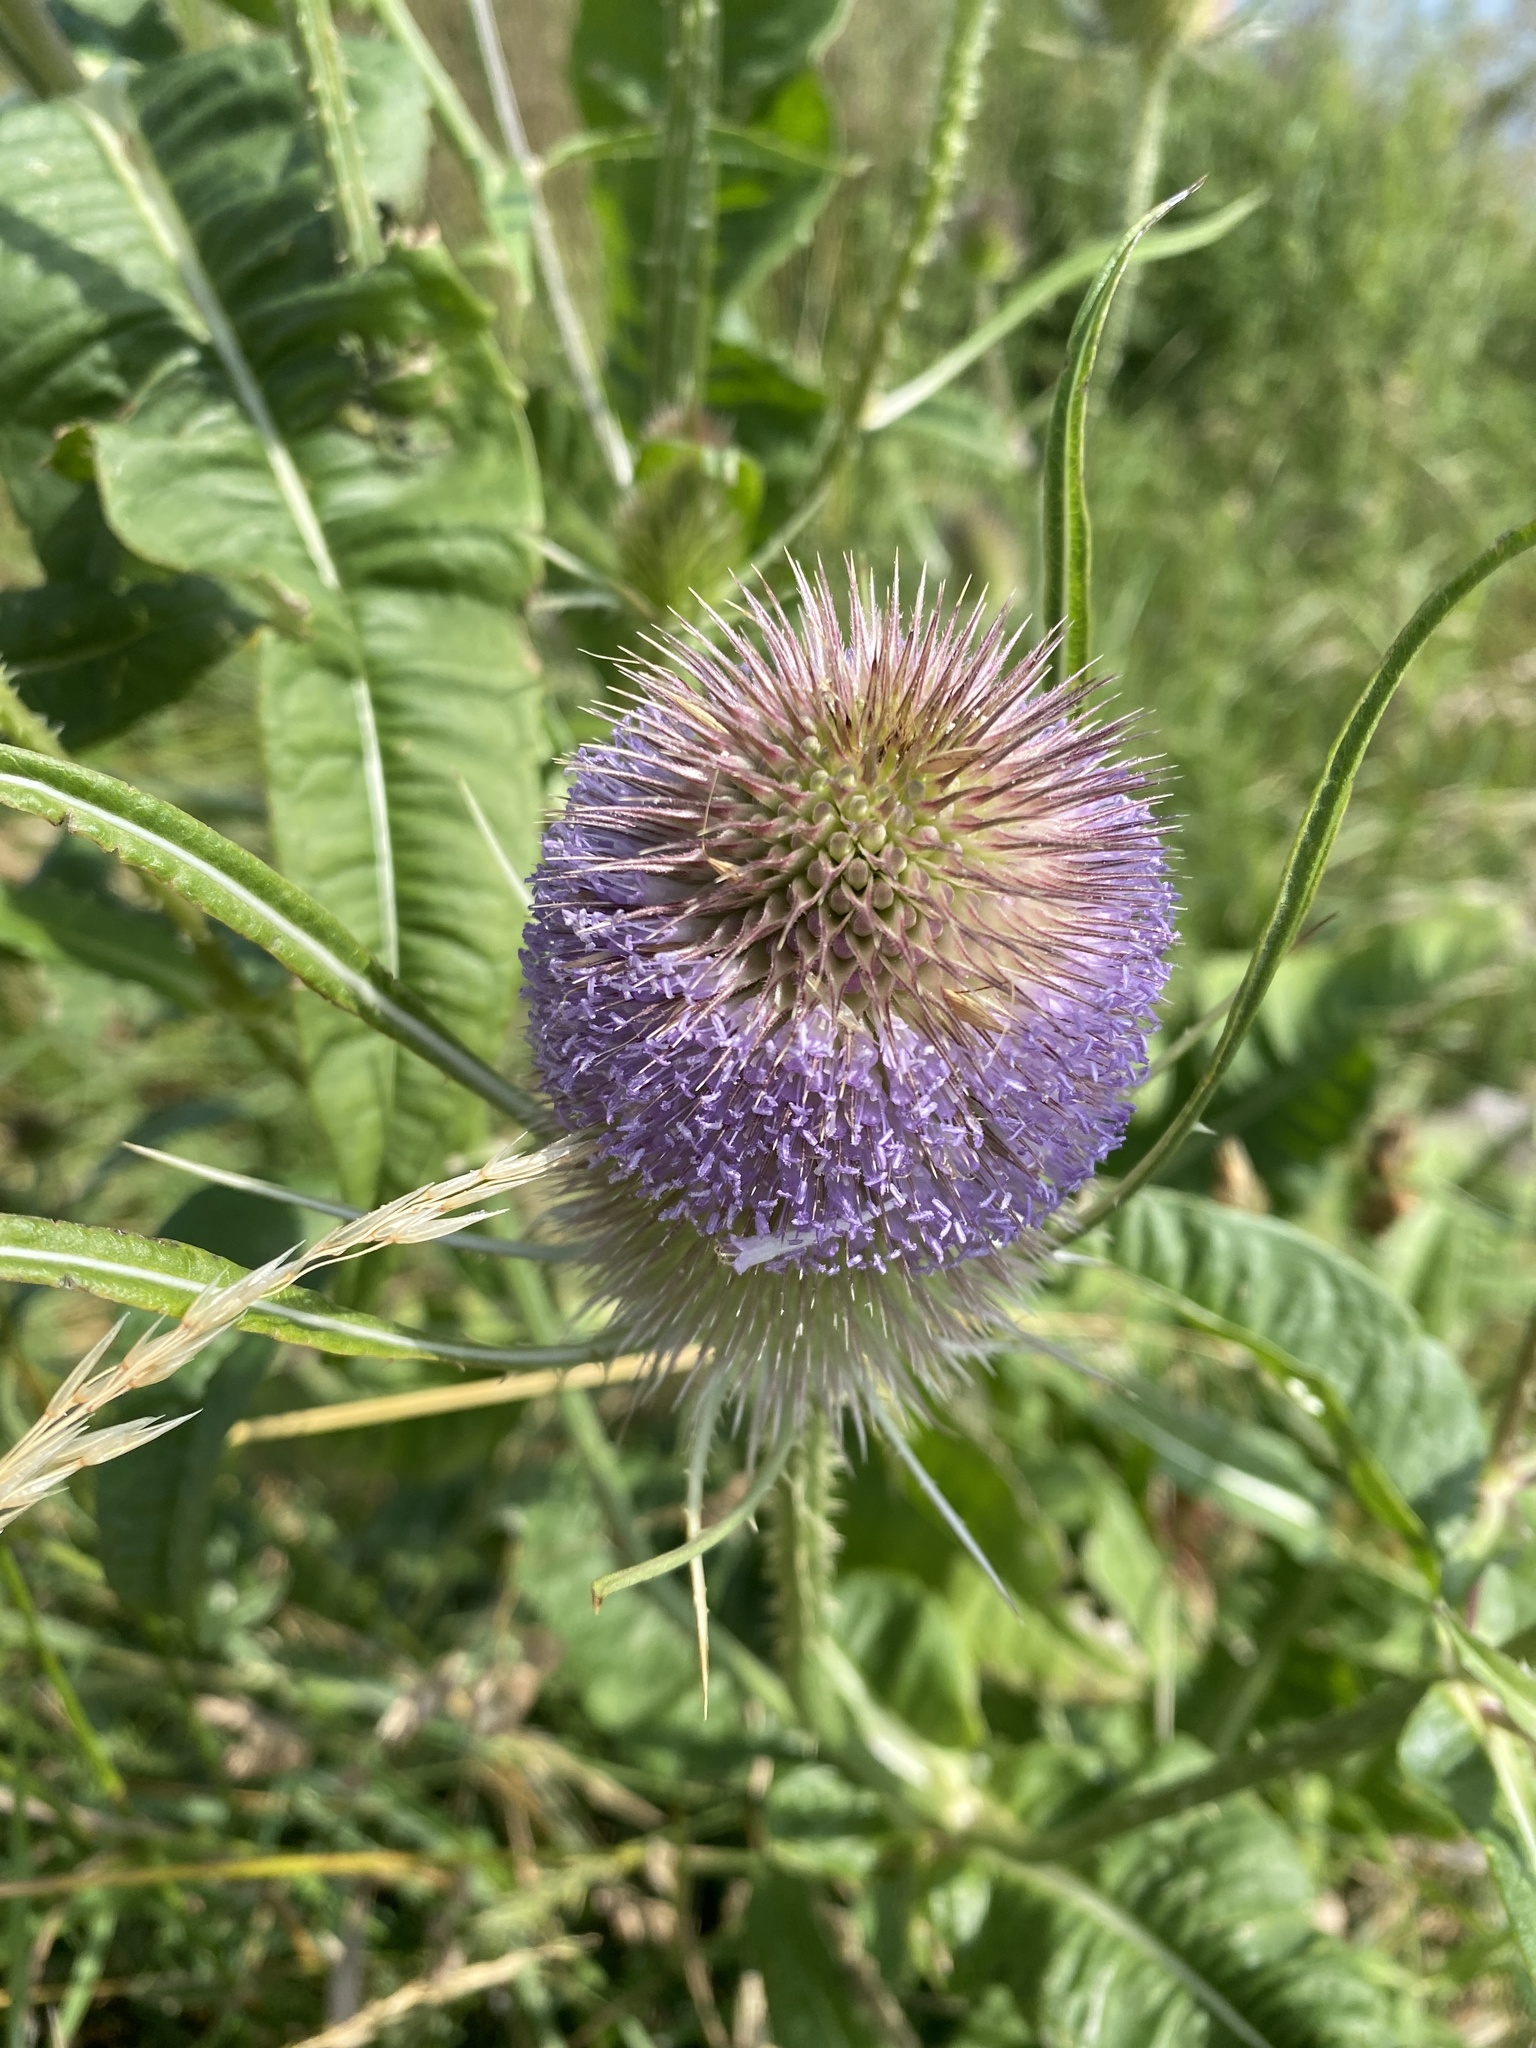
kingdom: Plantae
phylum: Tracheophyta
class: Magnoliopsida
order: Dipsacales
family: Caprifoliaceae
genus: Dipsacus
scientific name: Dipsacus fullonum
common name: Teasel
